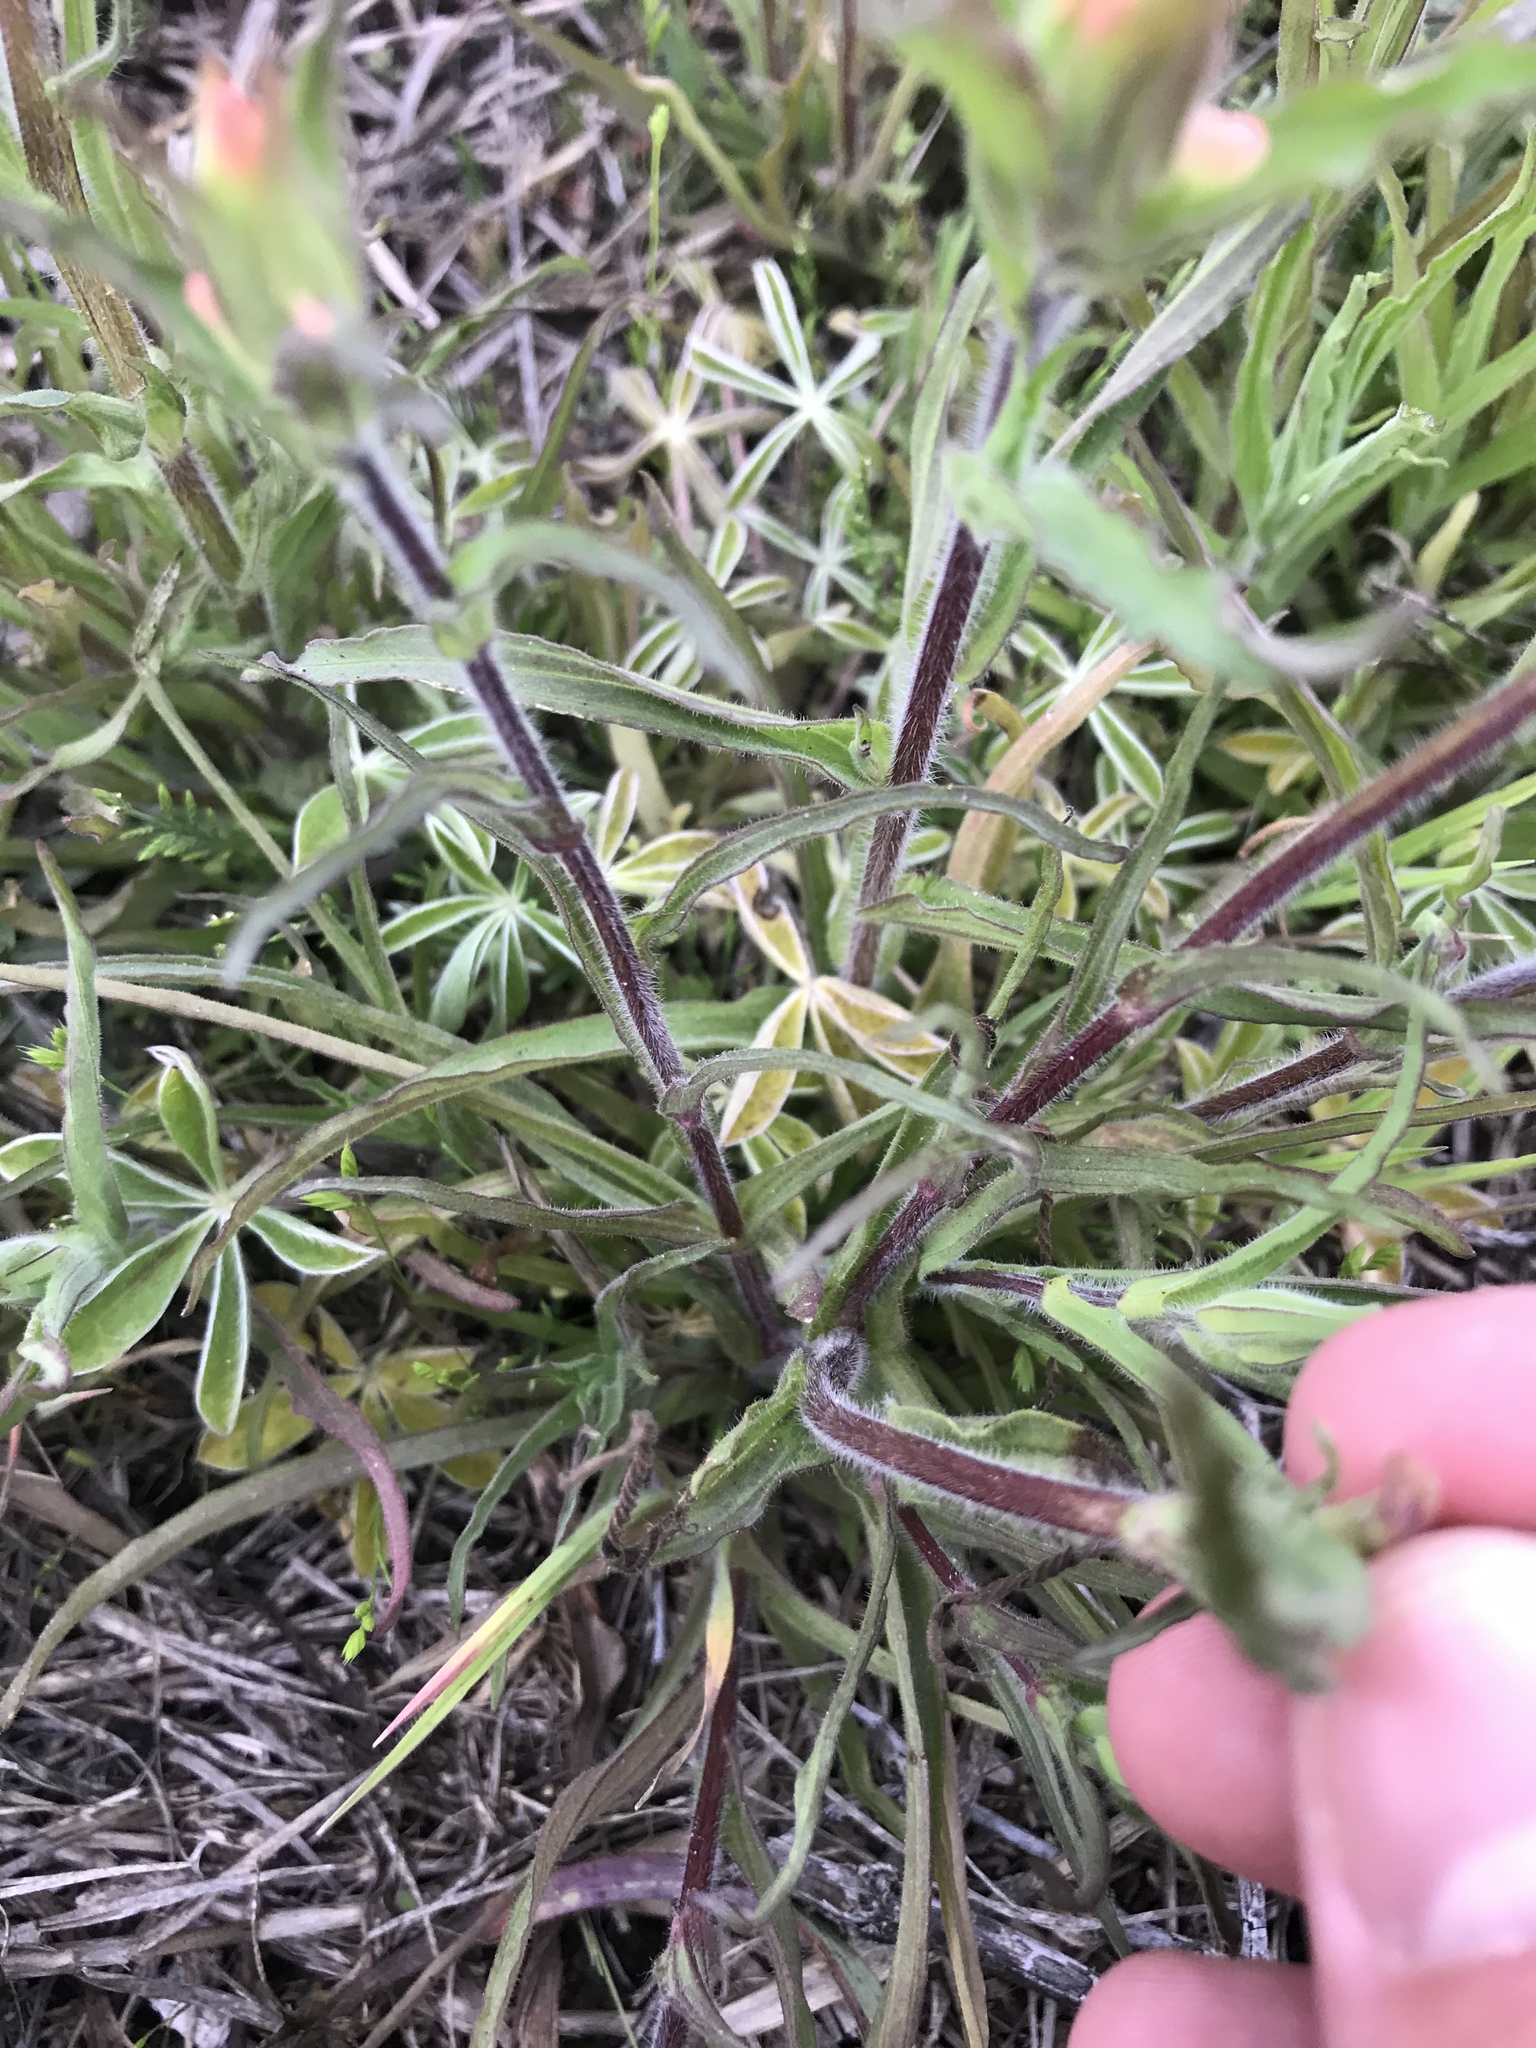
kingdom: Plantae
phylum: Tracheophyta
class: Magnoliopsida
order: Lamiales
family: Orobanchaceae
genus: Castilleja
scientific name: Castilleja indivisa
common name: Texas paintbrush
